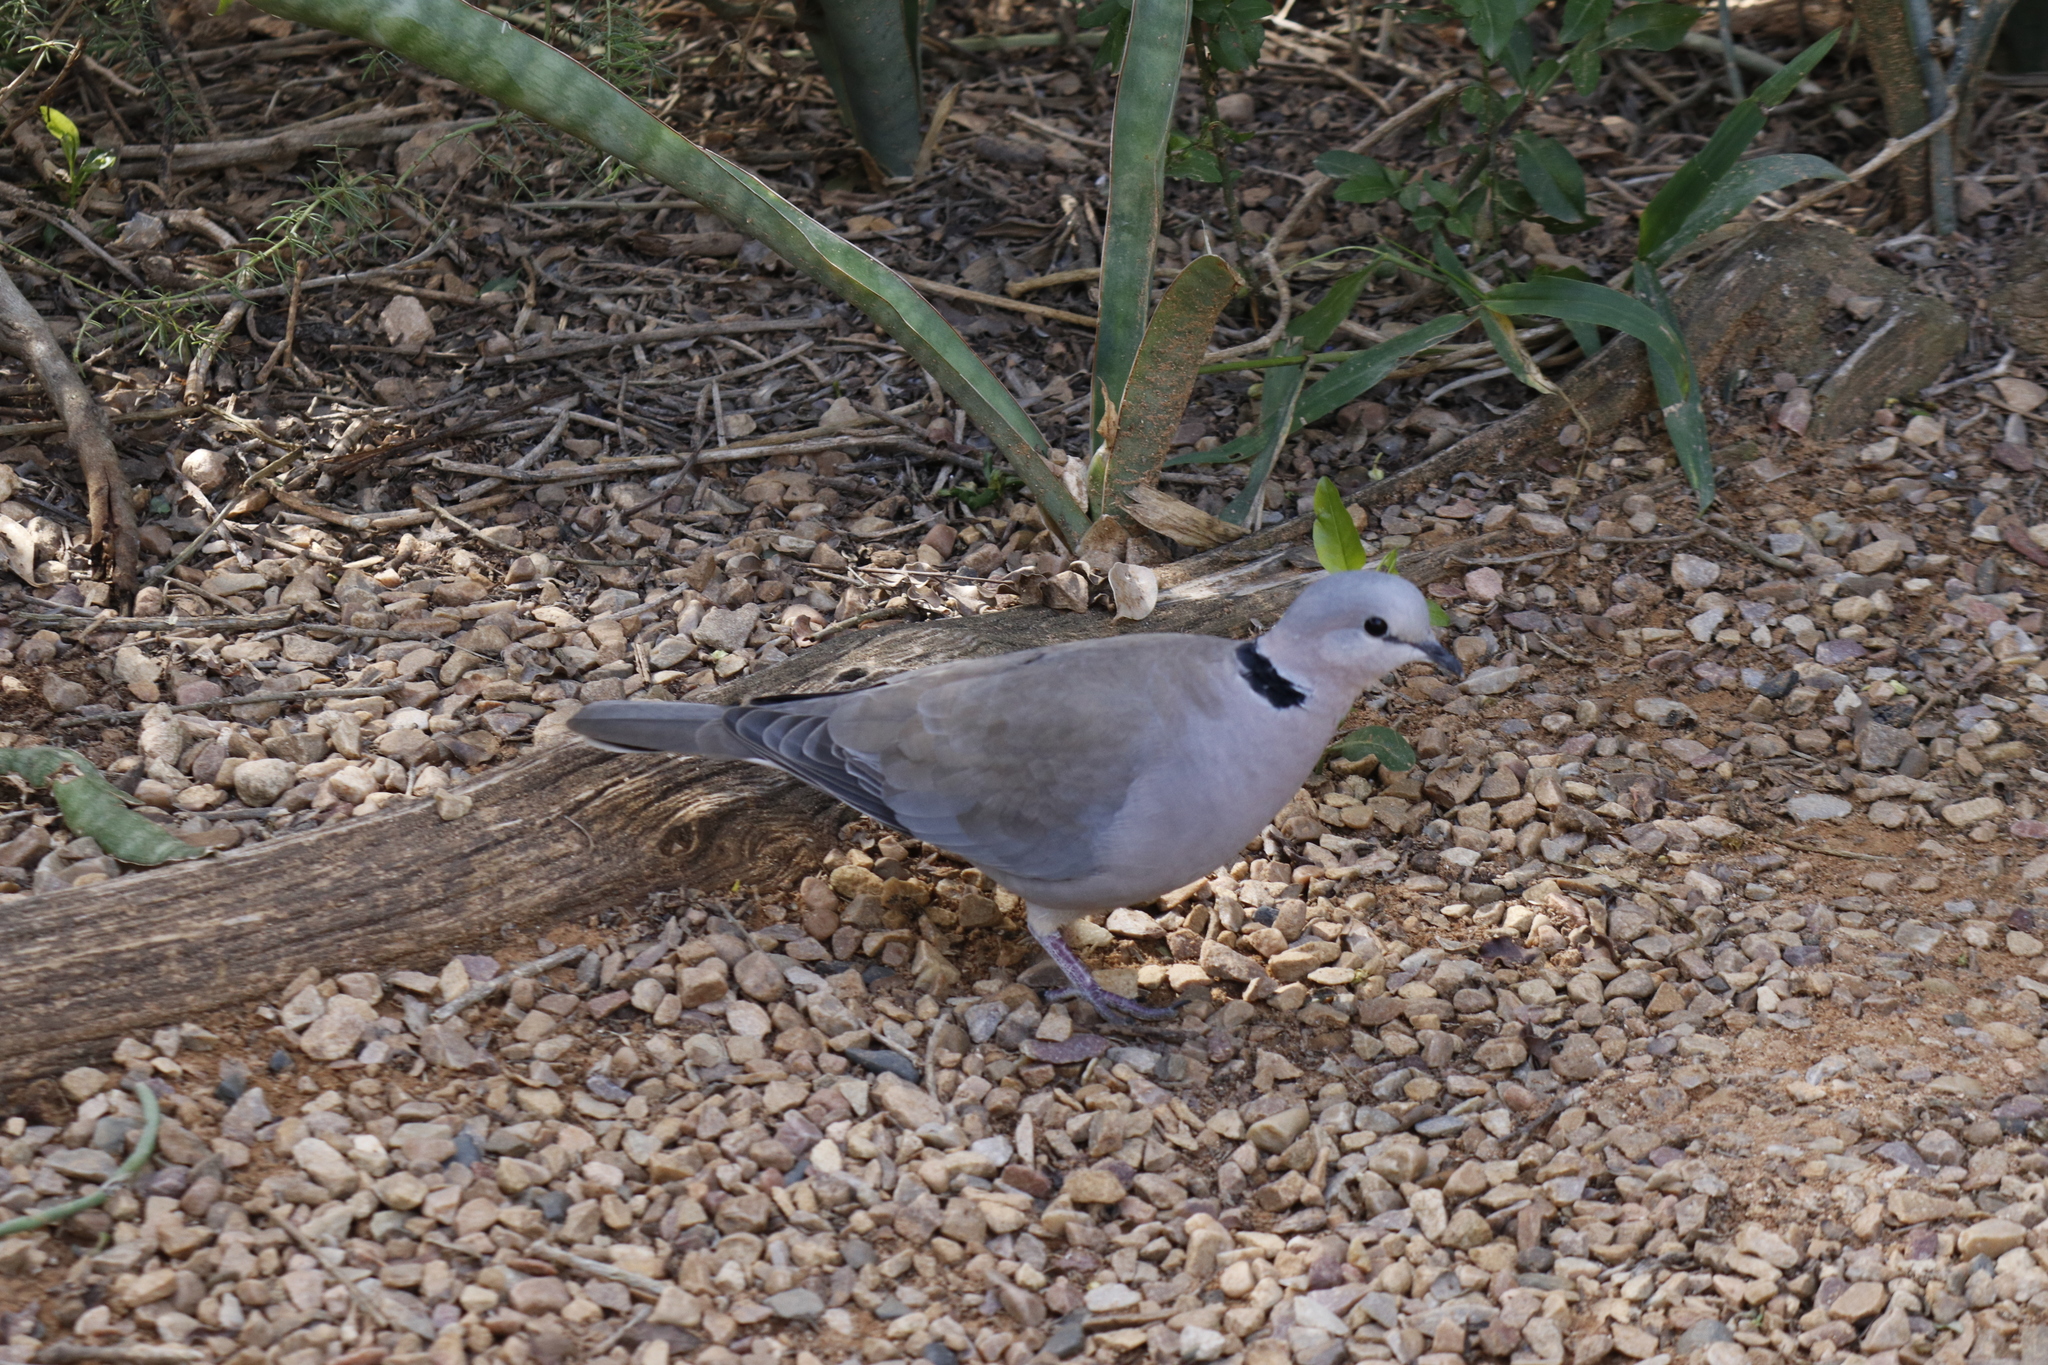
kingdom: Animalia
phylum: Chordata
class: Aves
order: Columbiformes
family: Columbidae
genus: Streptopelia
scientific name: Streptopelia capicola
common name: Ring-necked dove
